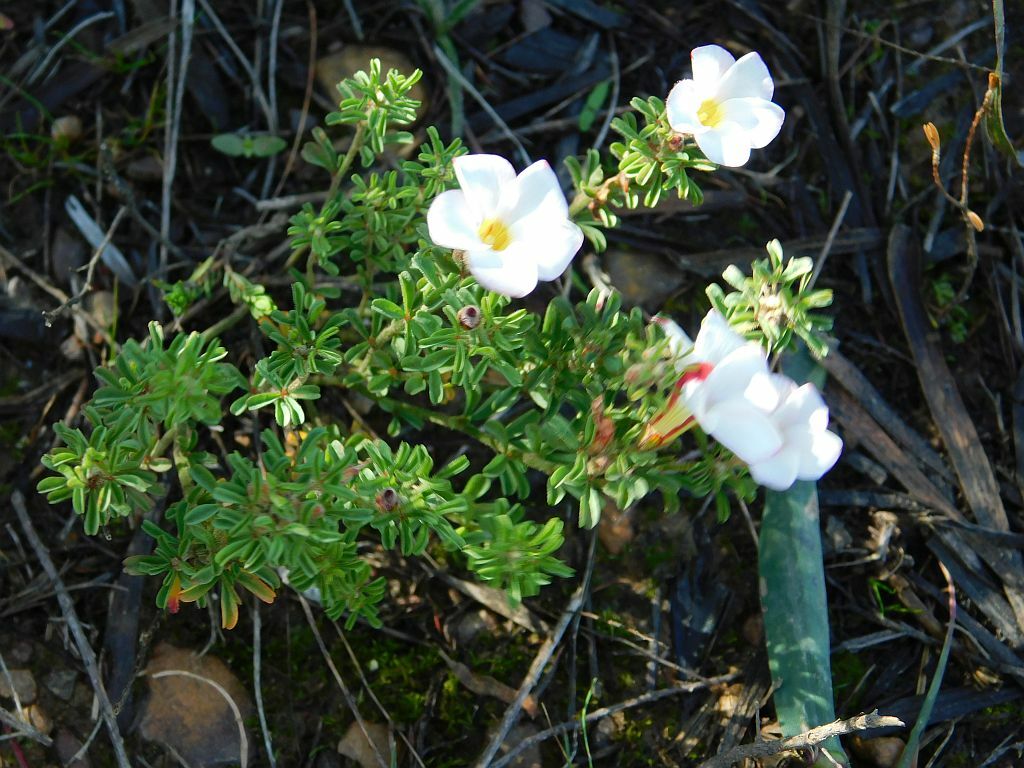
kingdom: Plantae
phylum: Tracheophyta
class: Magnoliopsida
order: Oxalidales
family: Oxalidaceae
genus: Oxalis
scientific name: Oxalis multicaulis
